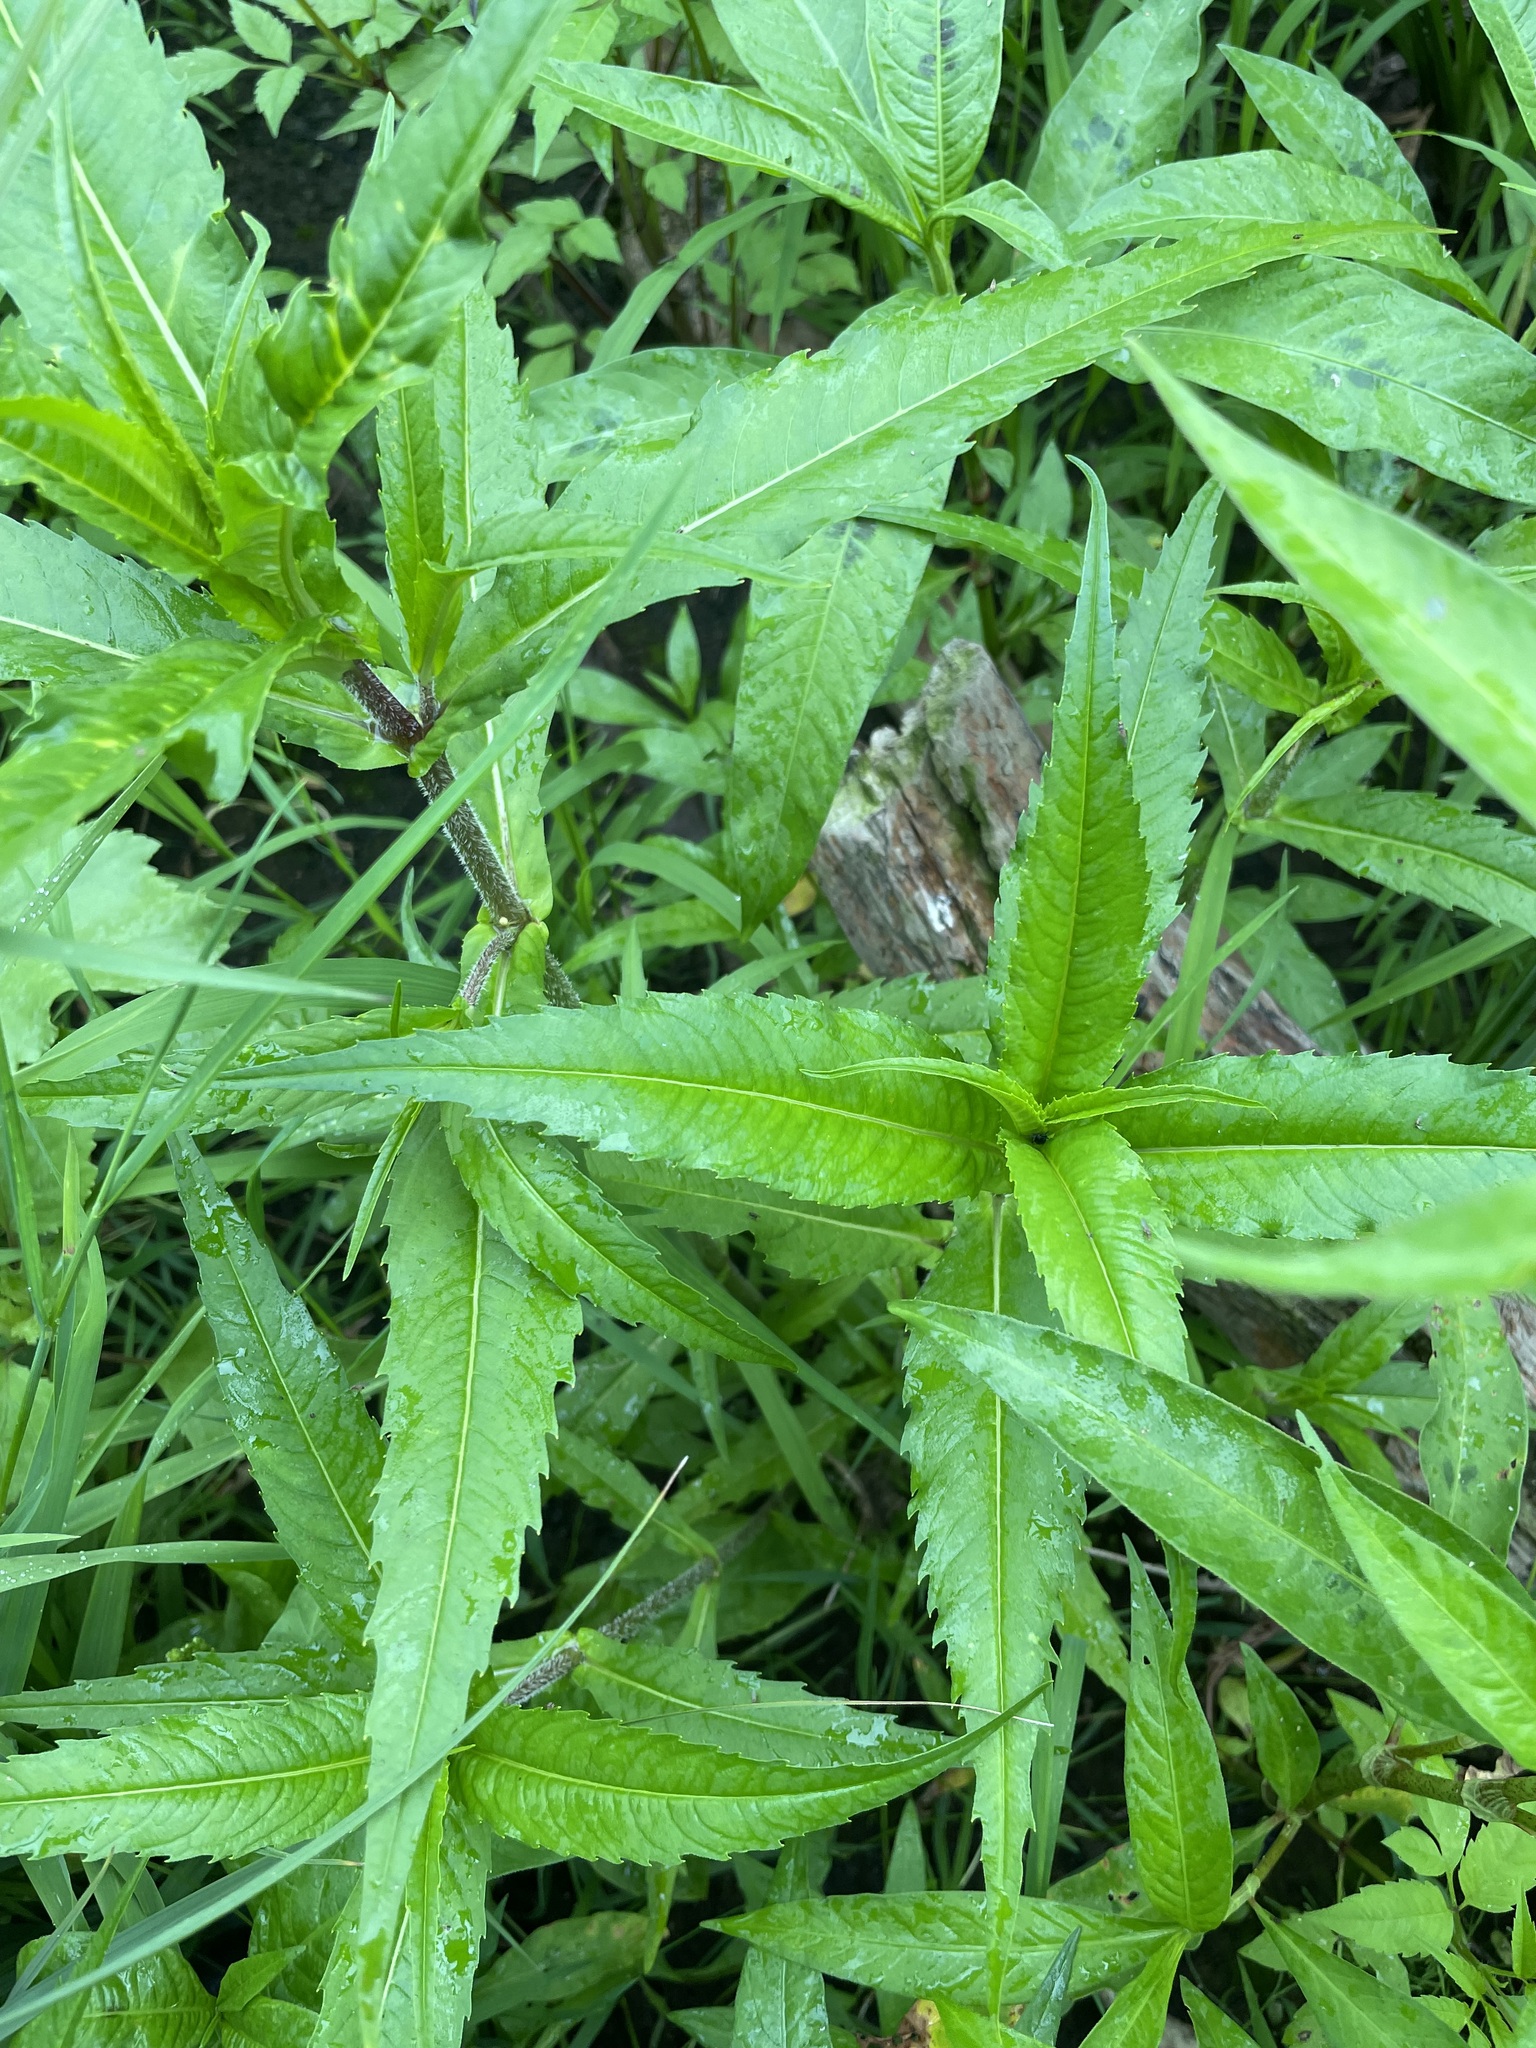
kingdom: Plantae
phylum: Tracheophyta
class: Magnoliopsida
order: Asterales
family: Asteraceae
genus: Bidens
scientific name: Bidens cernua
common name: Nodding bur-marigold
